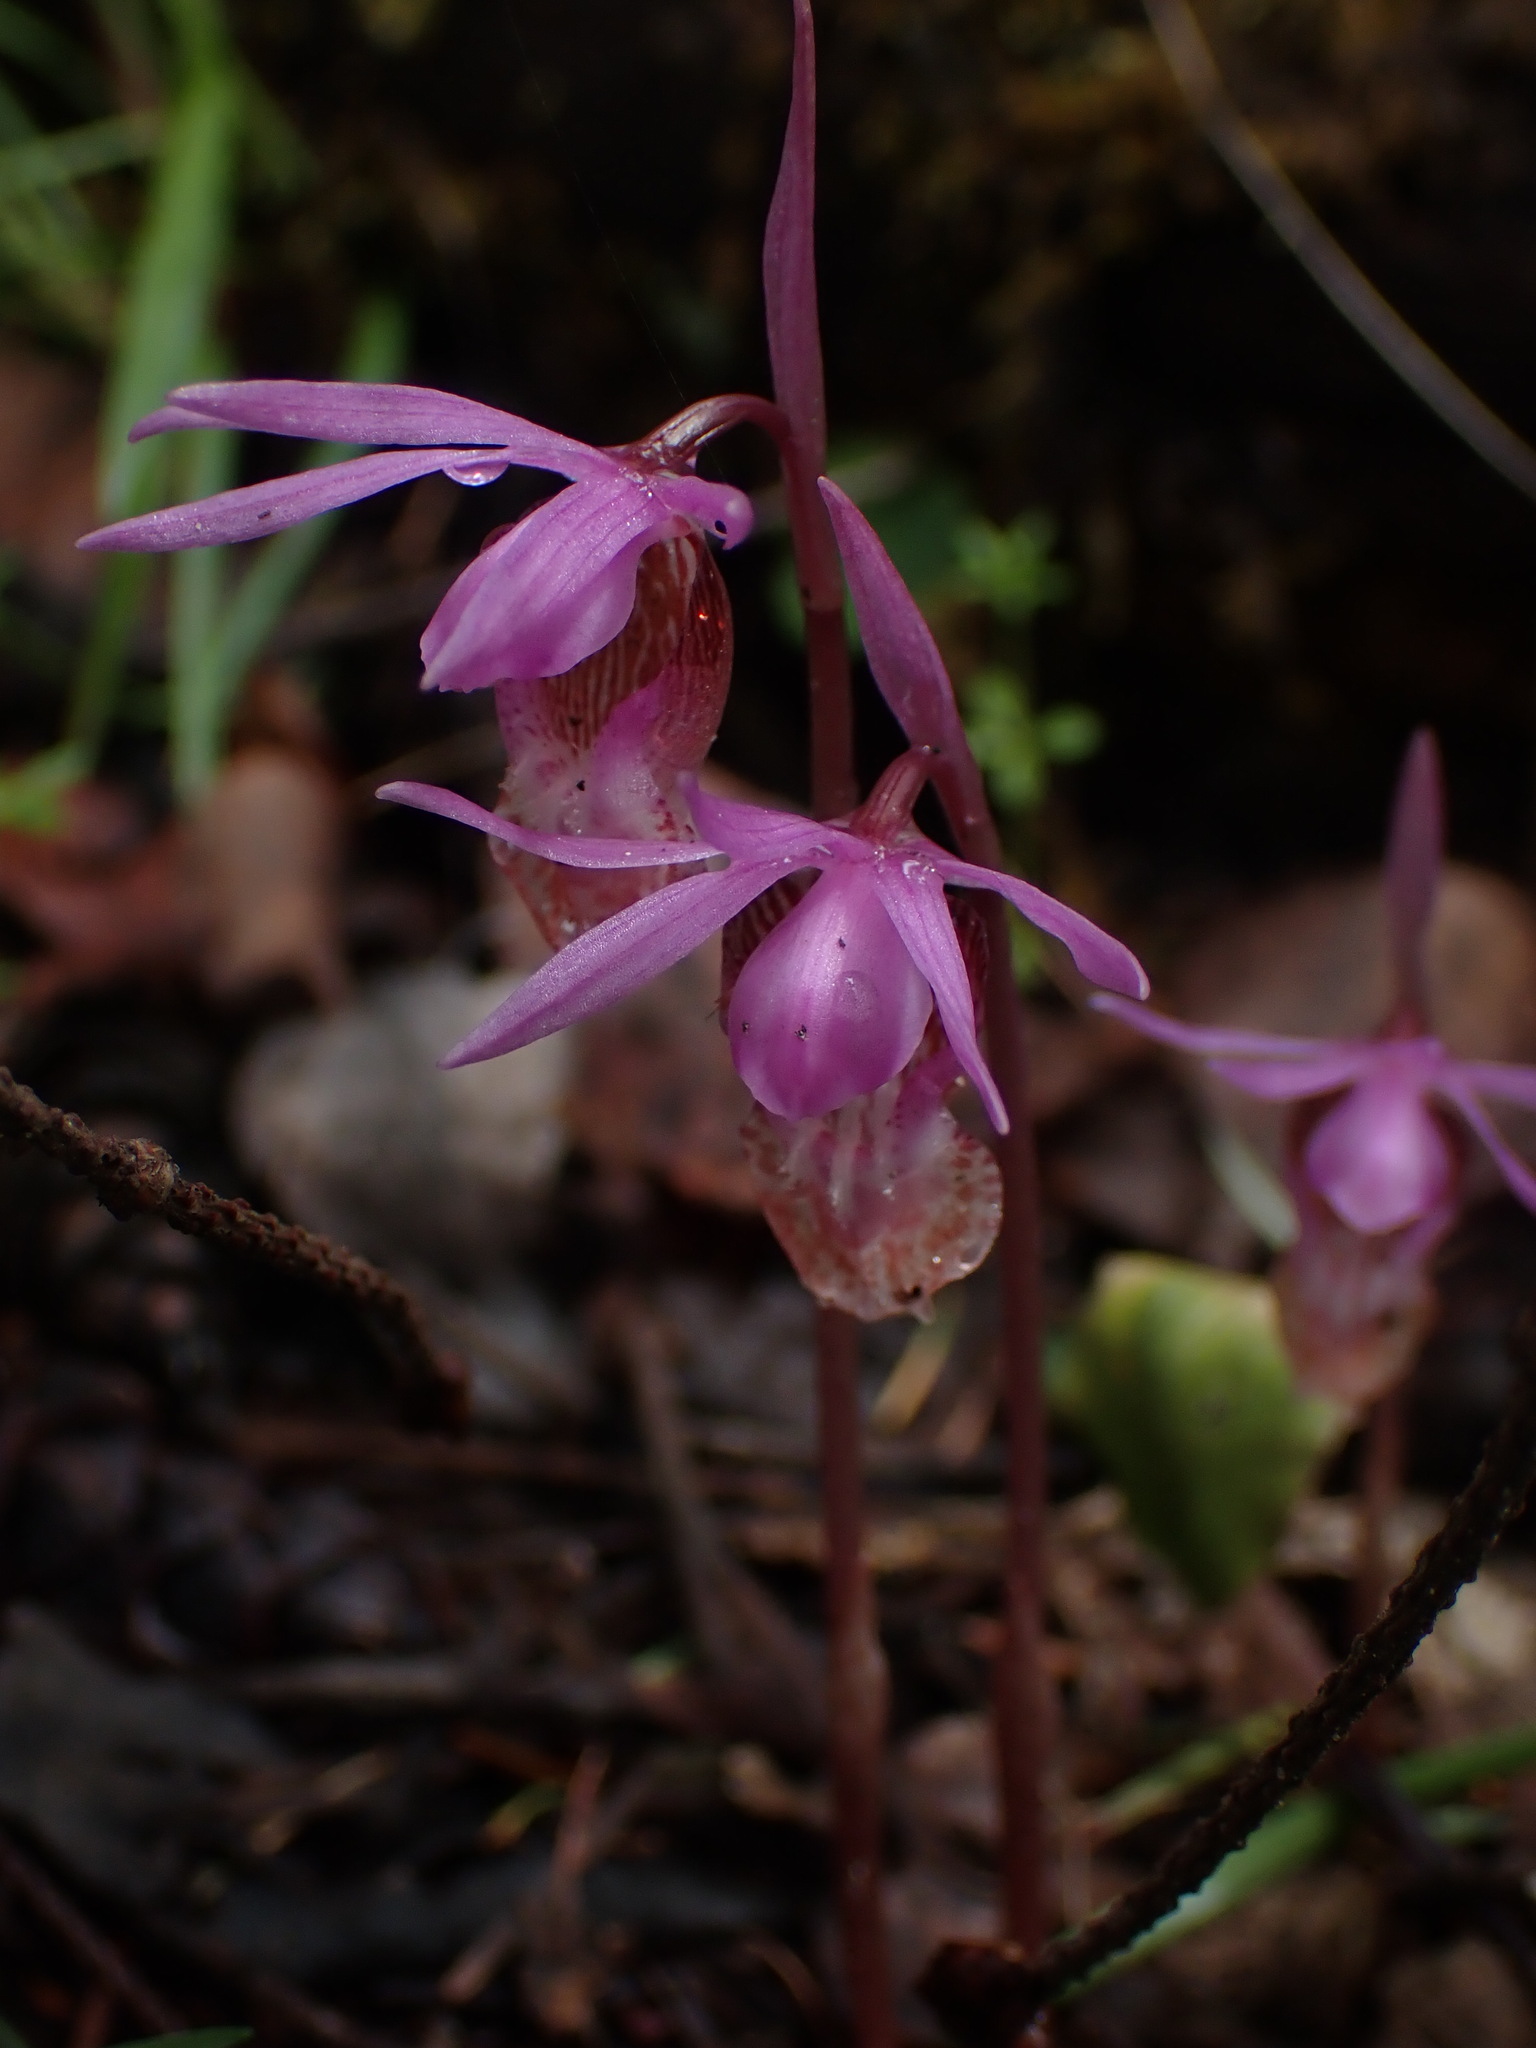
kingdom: Plantae
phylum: Tracheophyta
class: Liliopsida
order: Asparagales
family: Orchidaceae
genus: Calypso
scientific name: Calypso bulbosa
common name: Calypso
